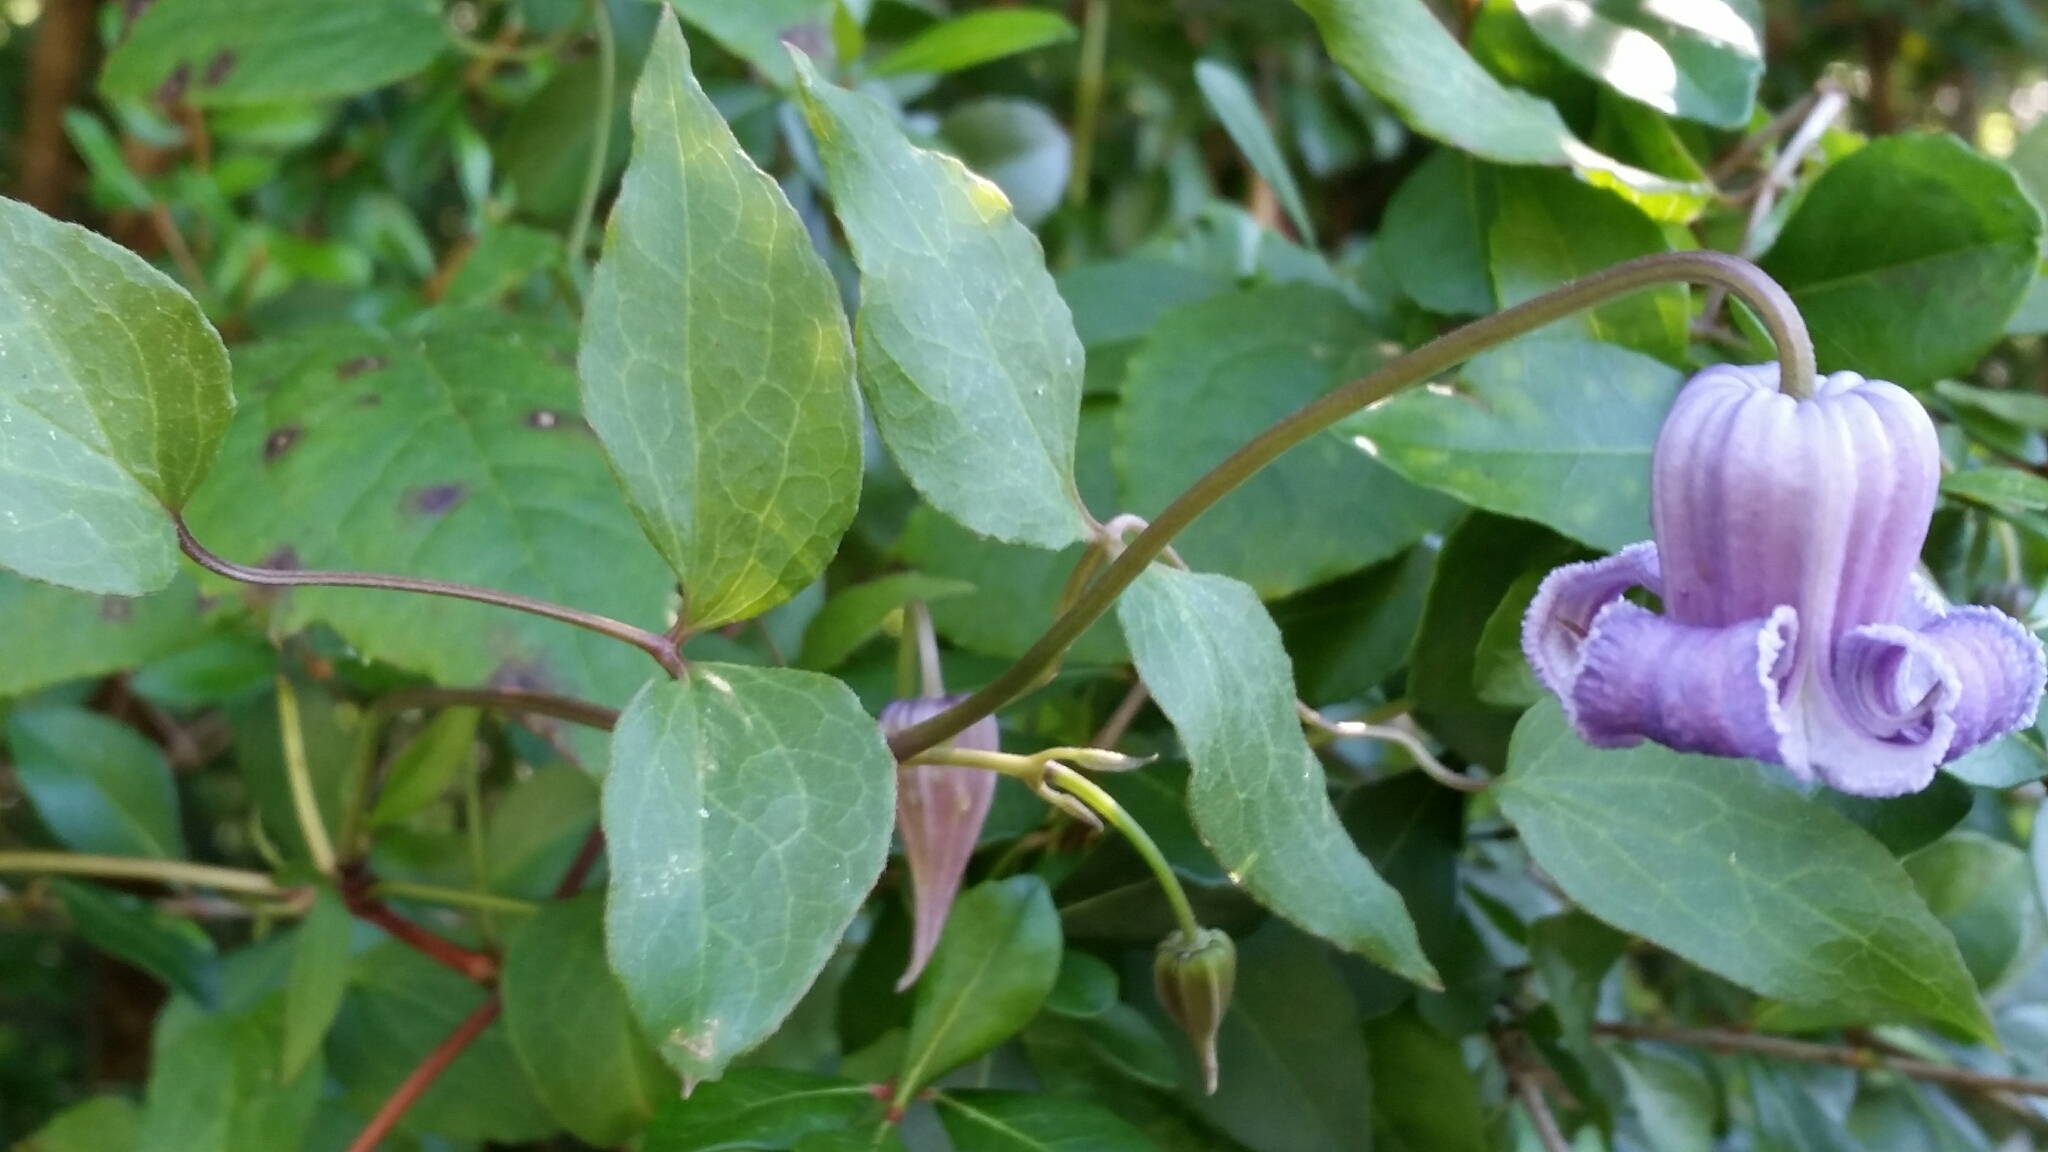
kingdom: Plantae
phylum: Tracheophyta
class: Magnoliopsida
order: Ranunculales
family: Ranunculaceae
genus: Clematis
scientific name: Clematis crispa
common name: Curly clematis
